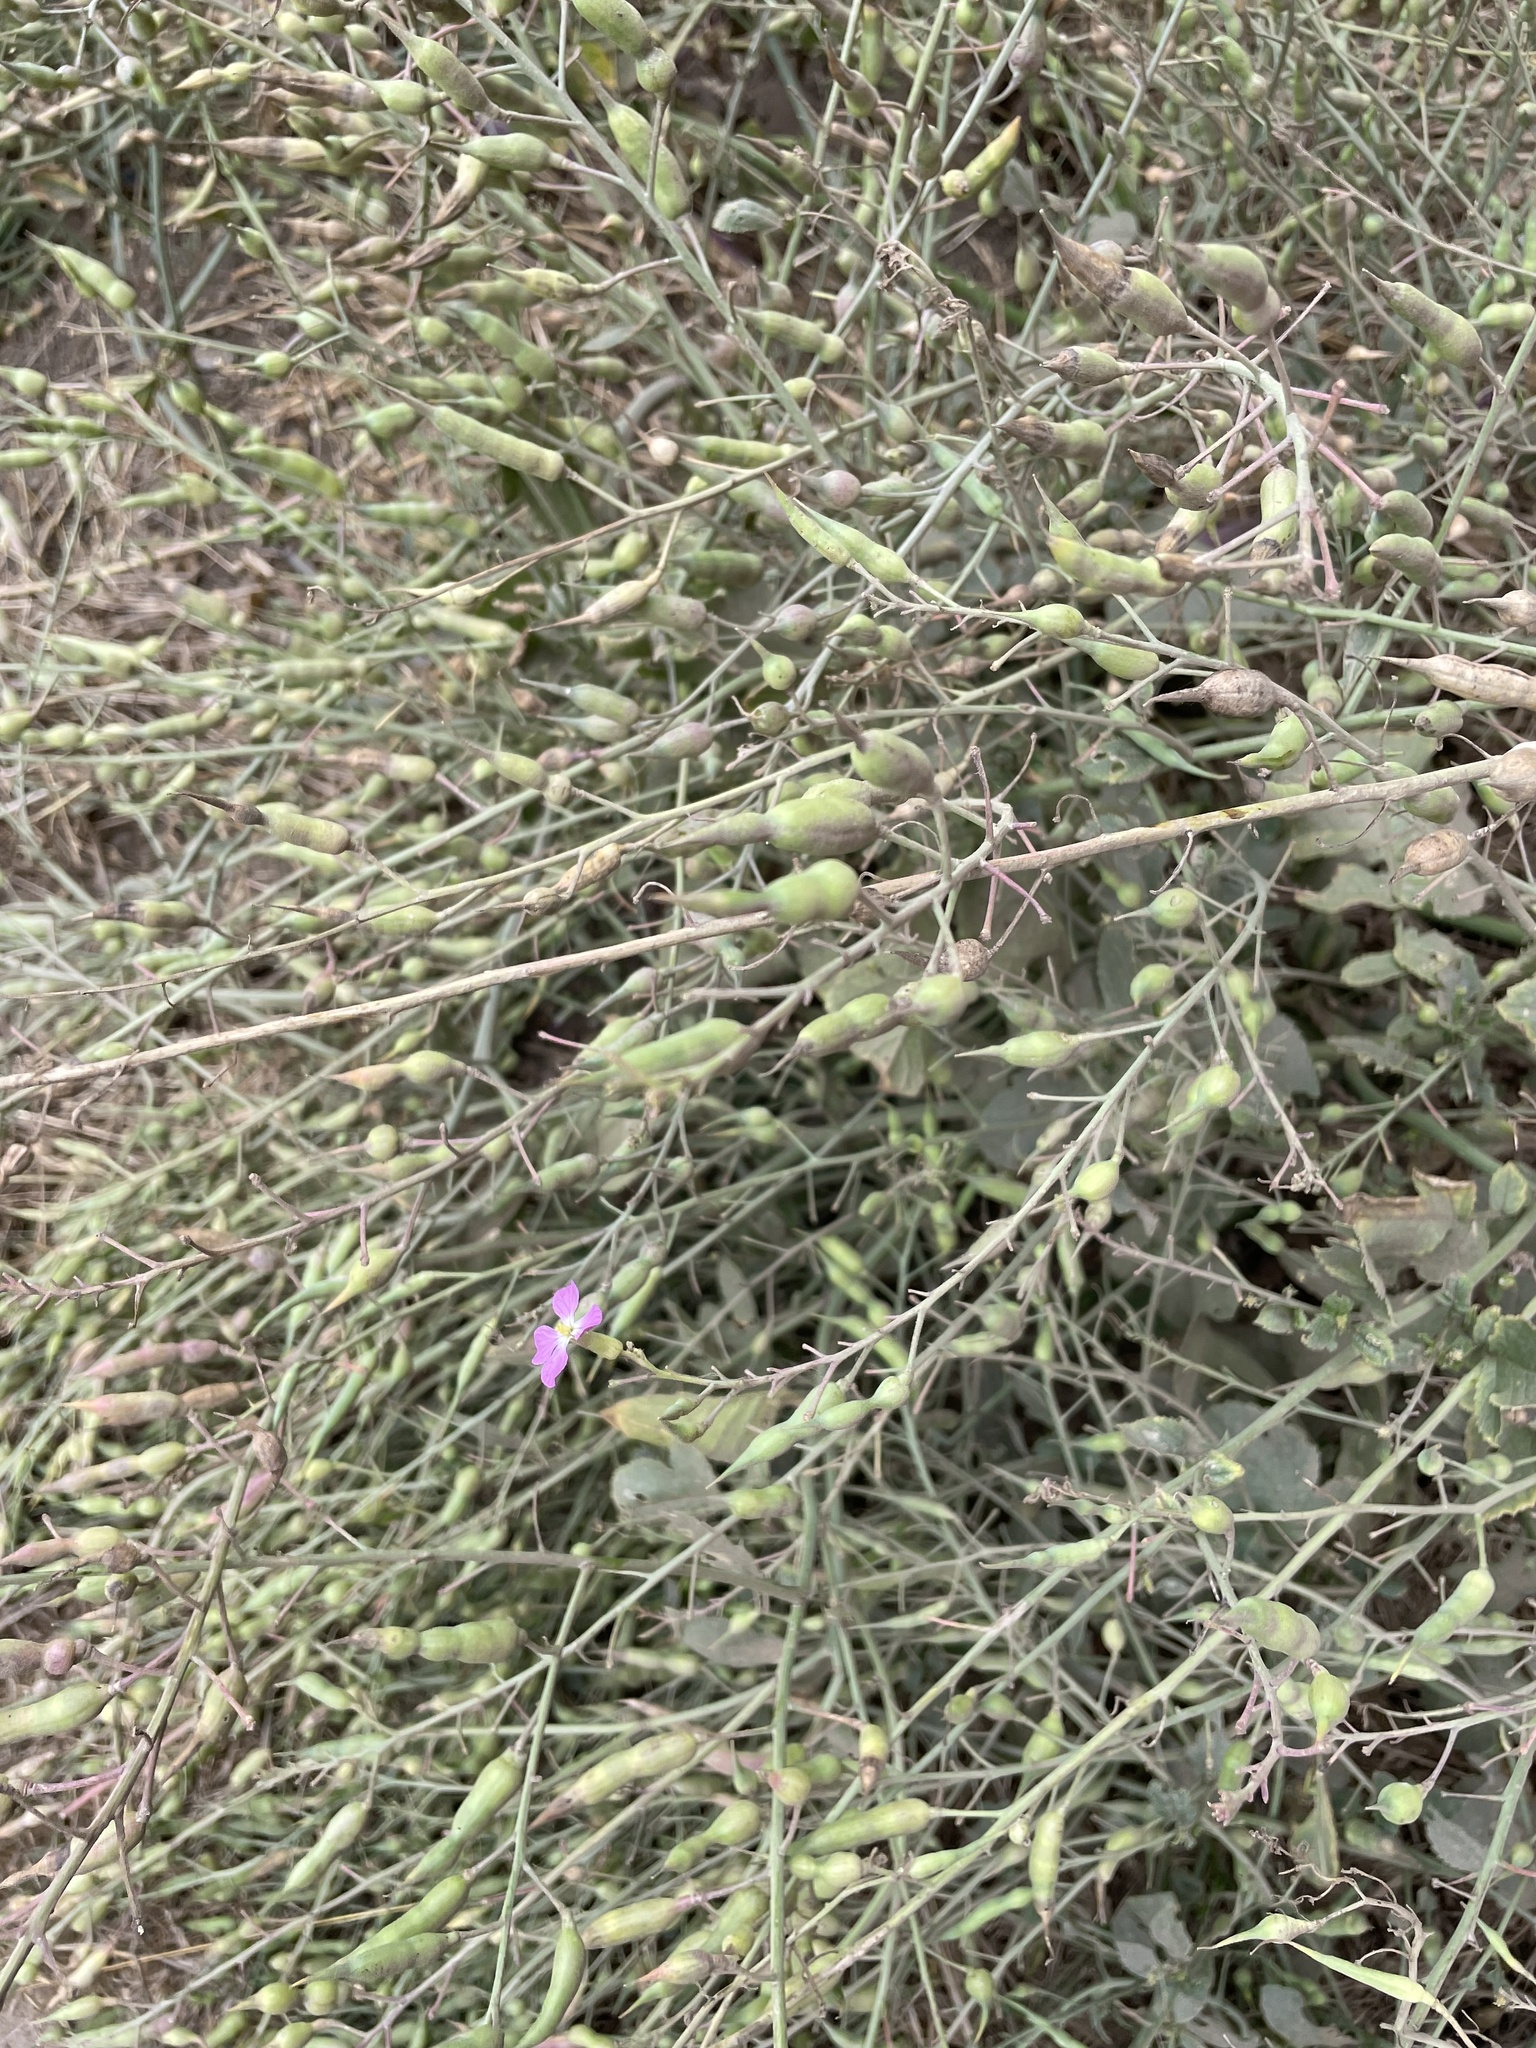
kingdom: Plantae
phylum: Tracheophyta
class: Magnoliopsida
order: Brassicales
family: Brassicaceae
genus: Raphanus
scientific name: Raphanus sativus
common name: Cultivated radish
